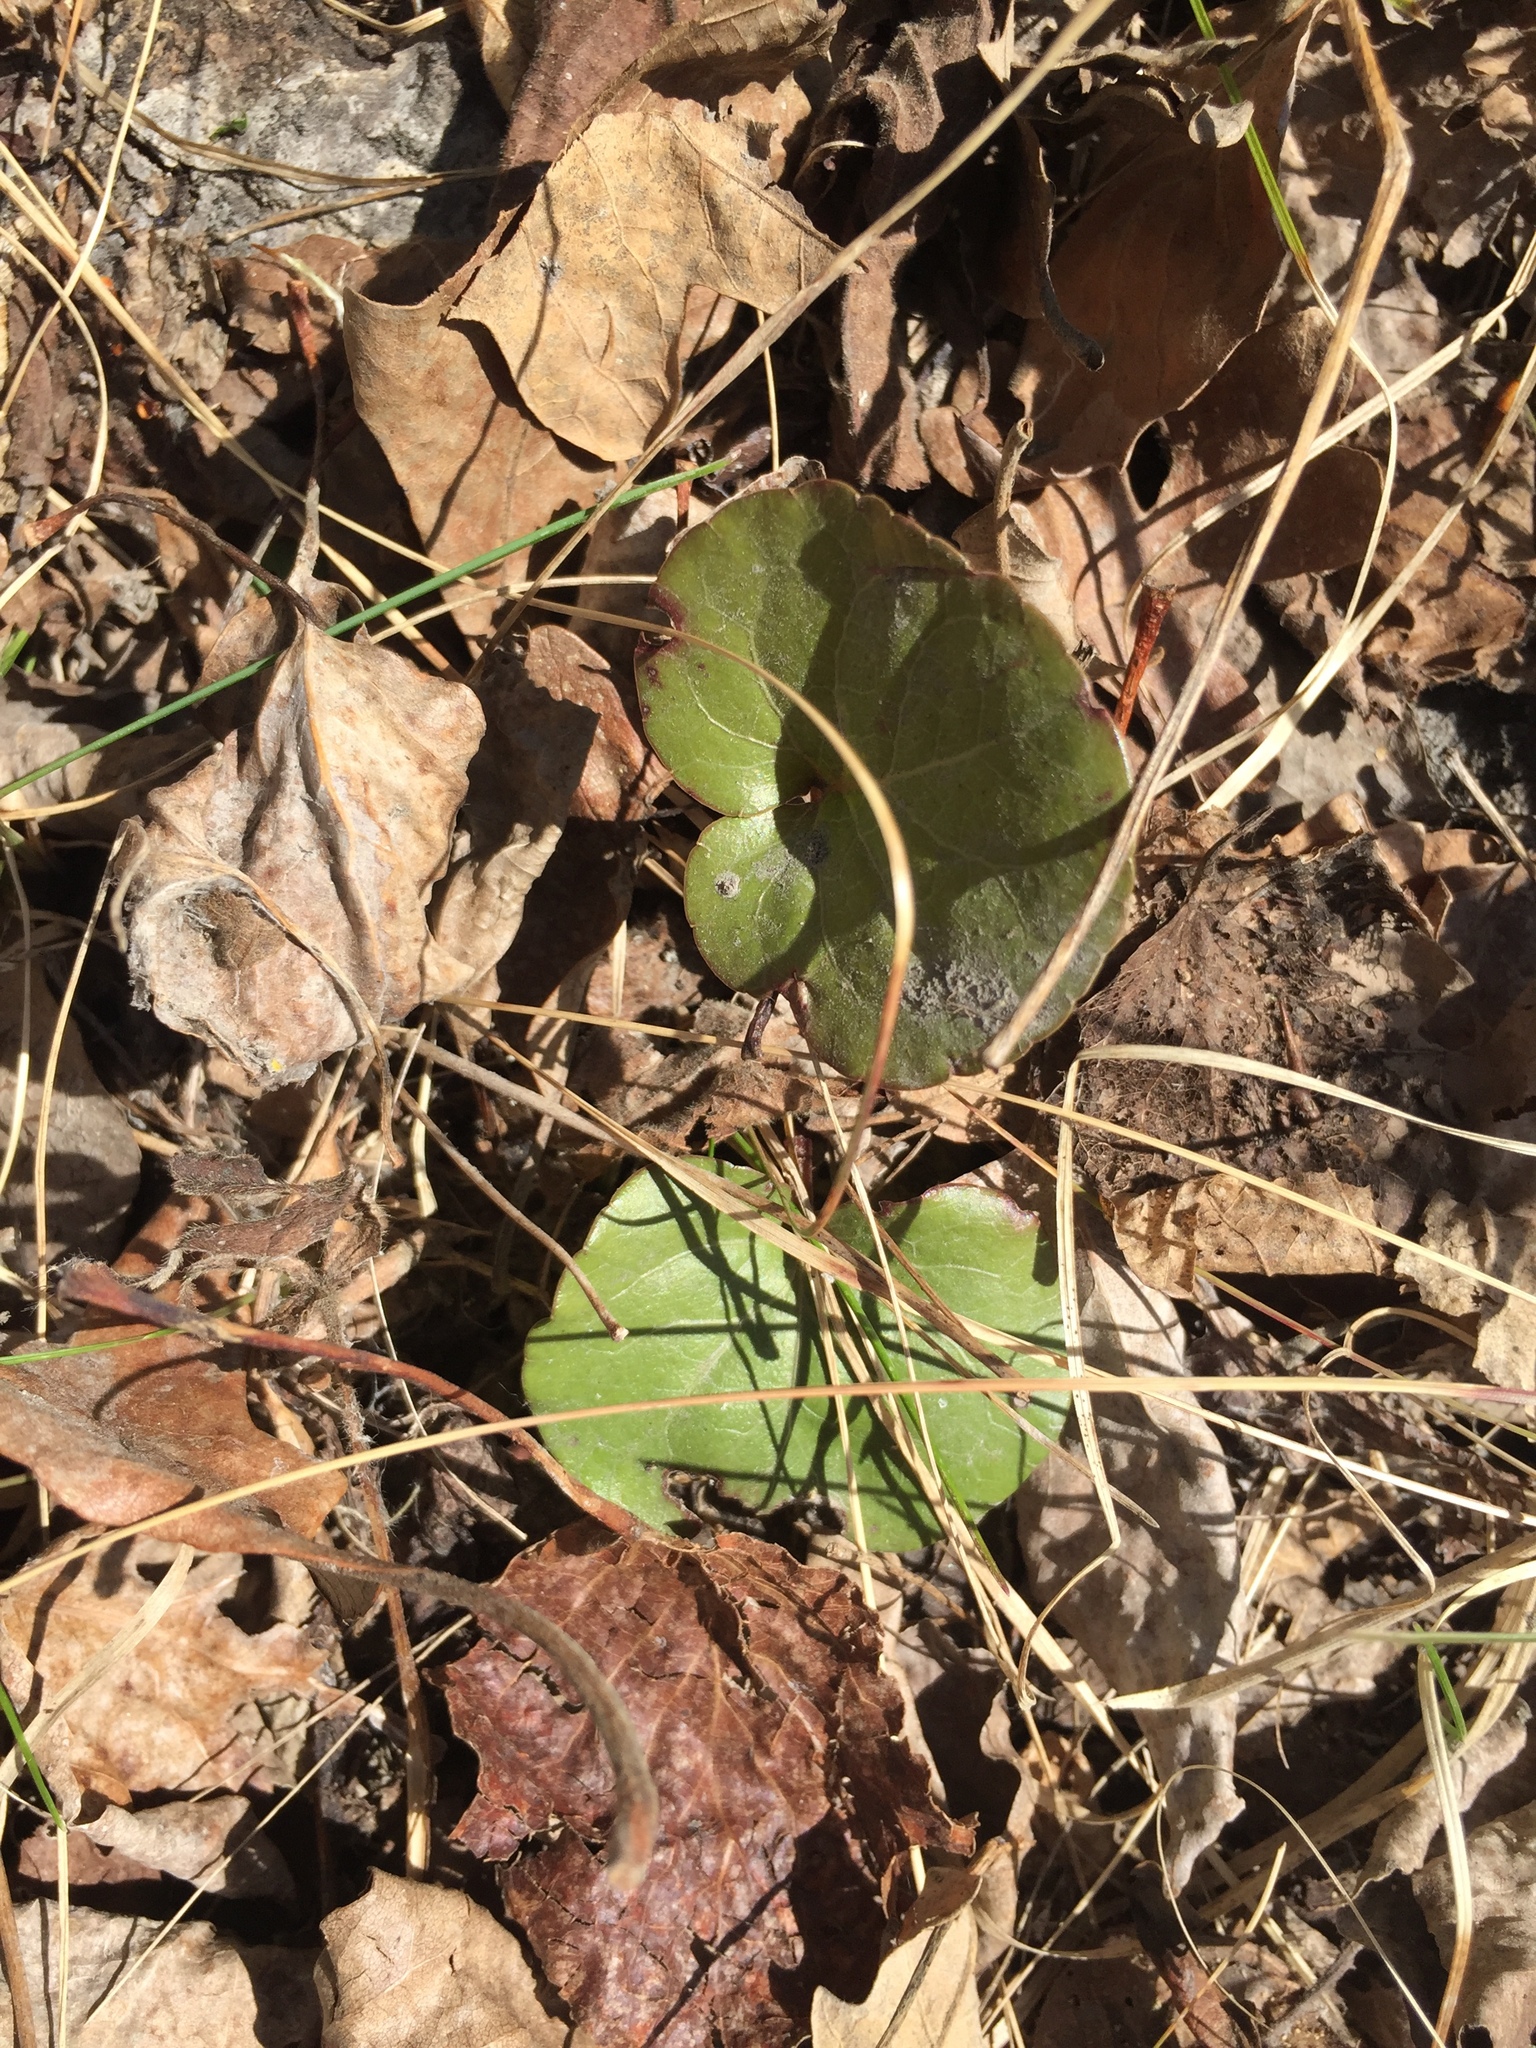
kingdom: Plantae
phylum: Tracheophyta
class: Magnoliopsida
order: Ericales
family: Ericaceae
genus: Pyrola
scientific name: Pyrola asarifolia
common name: Bog wintergreen
